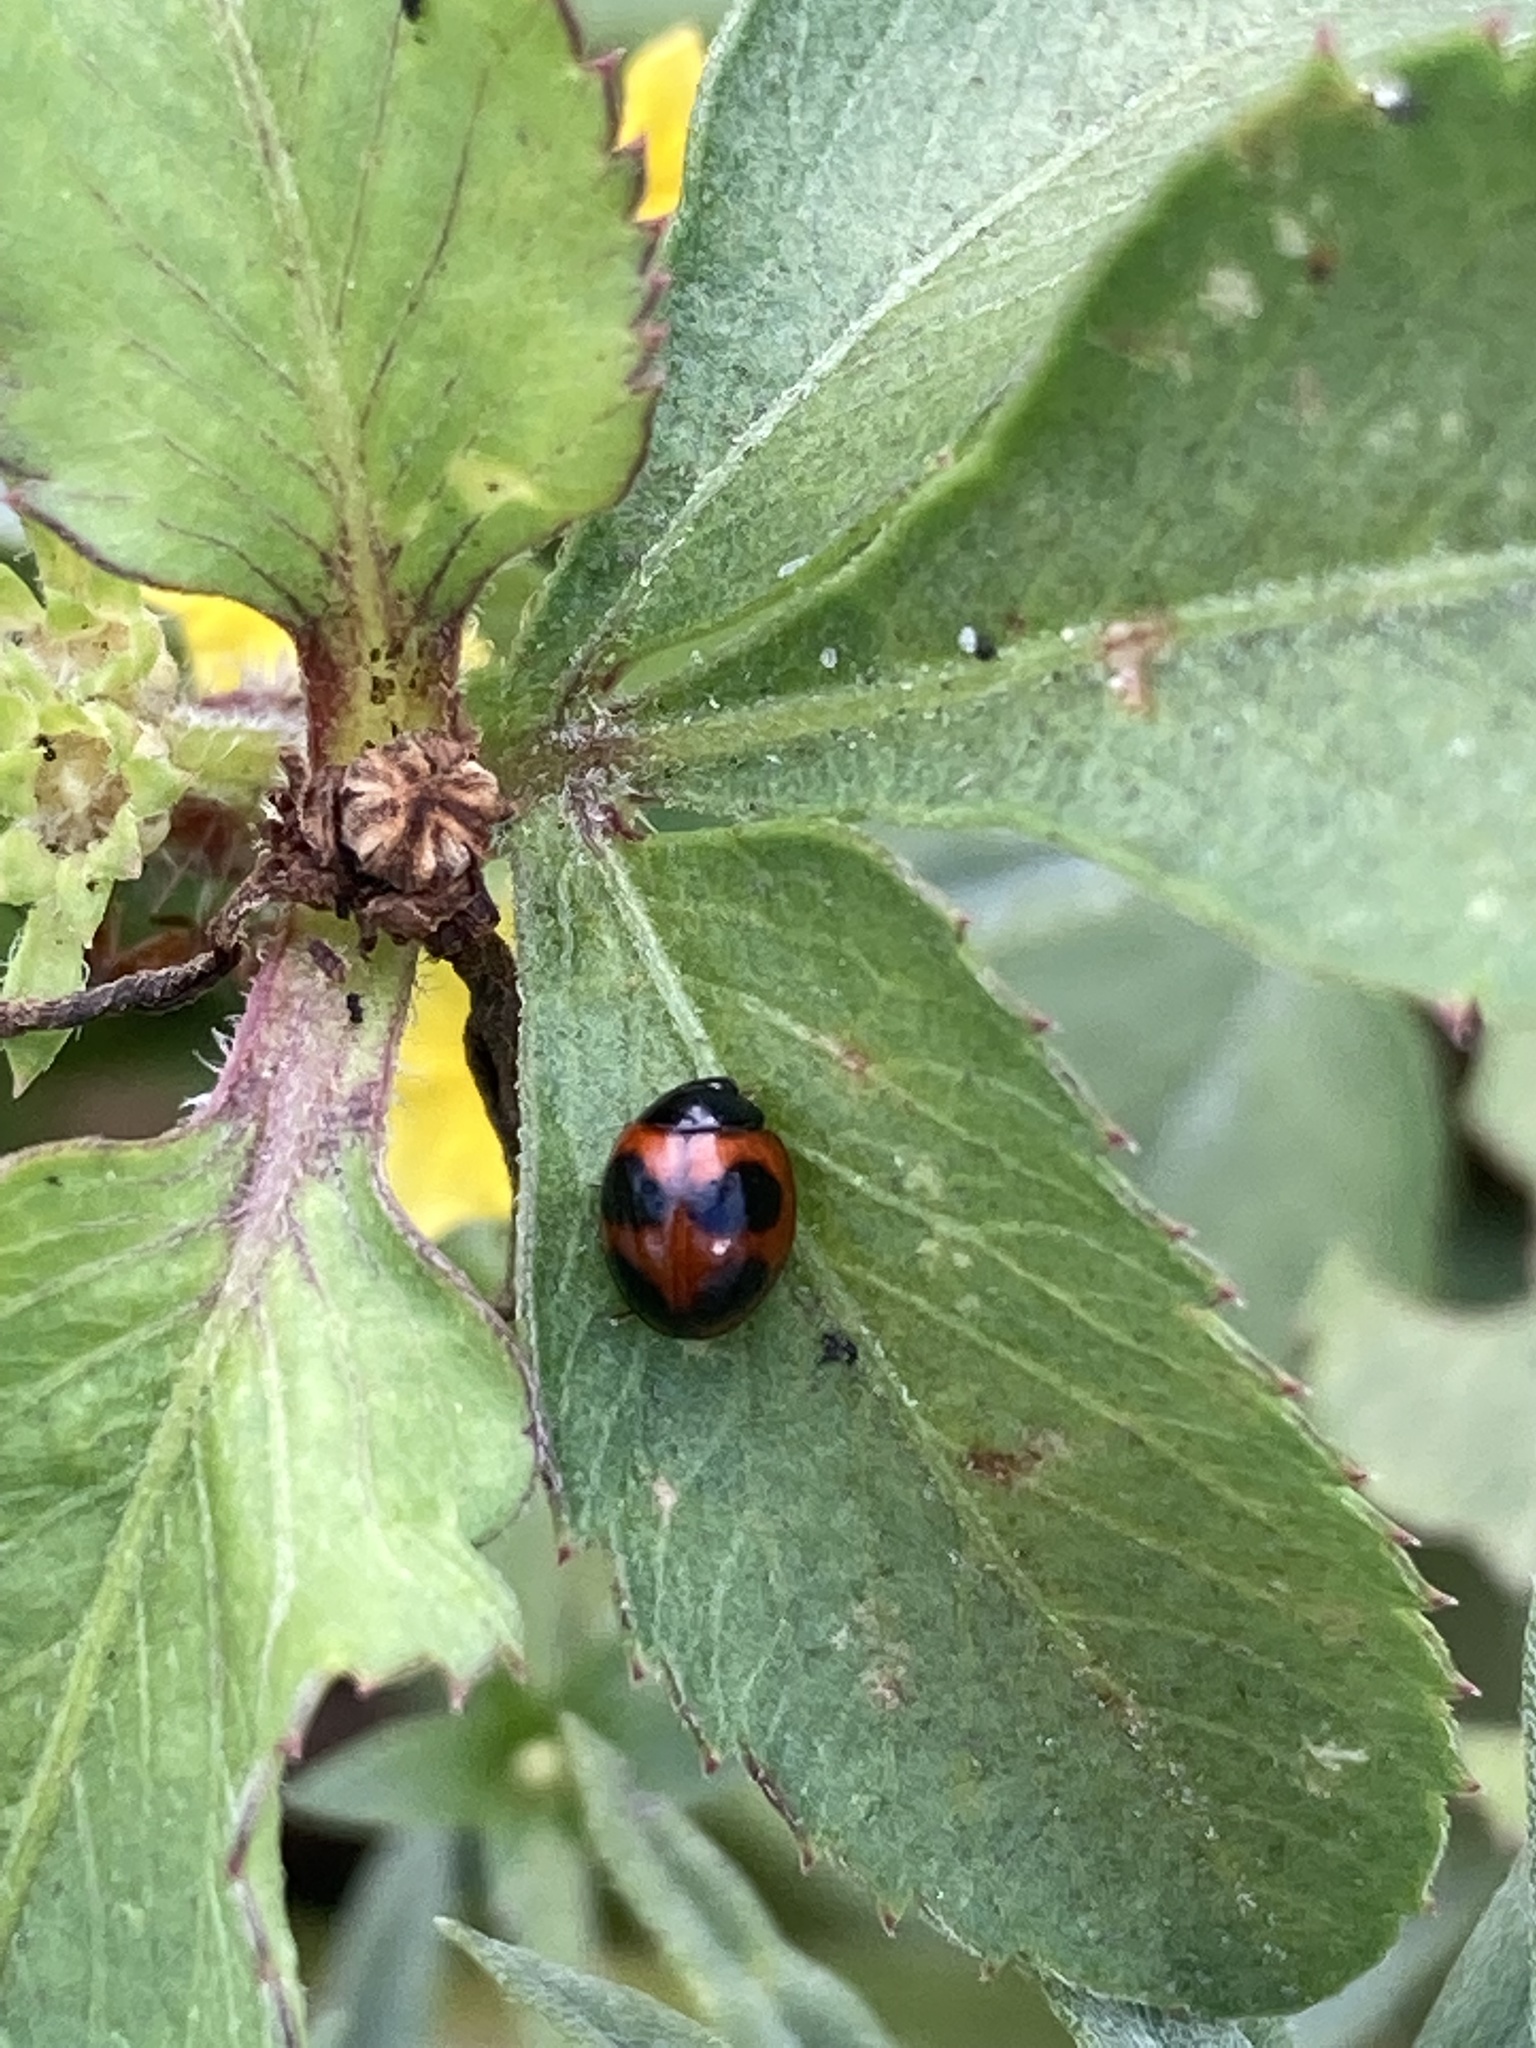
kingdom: Animalia
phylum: Arthropoda
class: Insecta
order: Coleoptera
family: Coccinellidae
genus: Exochomus
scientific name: Exochomus childreni
